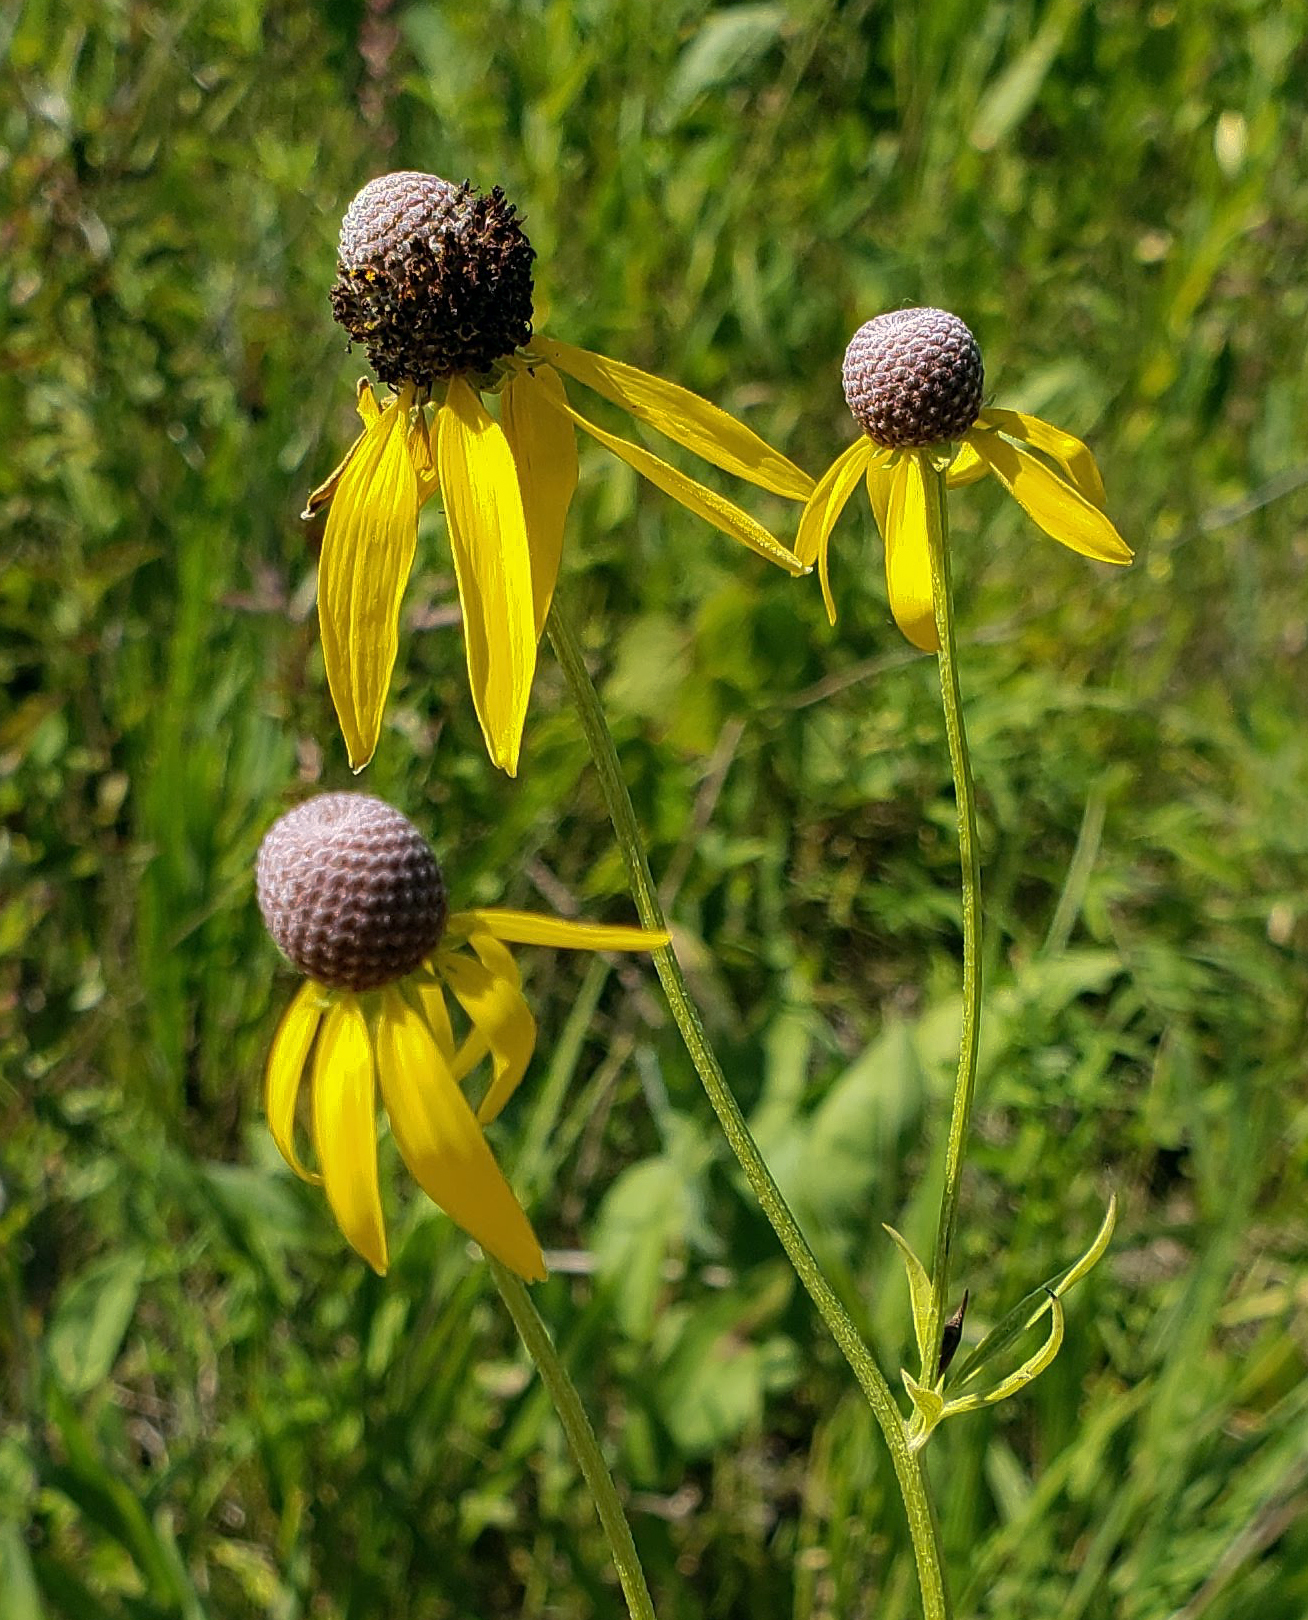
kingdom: Plantae
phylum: Tracheophyta
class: Magnoliopsida
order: Asterales
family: Asteraceae
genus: Ratibida
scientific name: Ratibida pinnata
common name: Drooping prairie-coneflower
